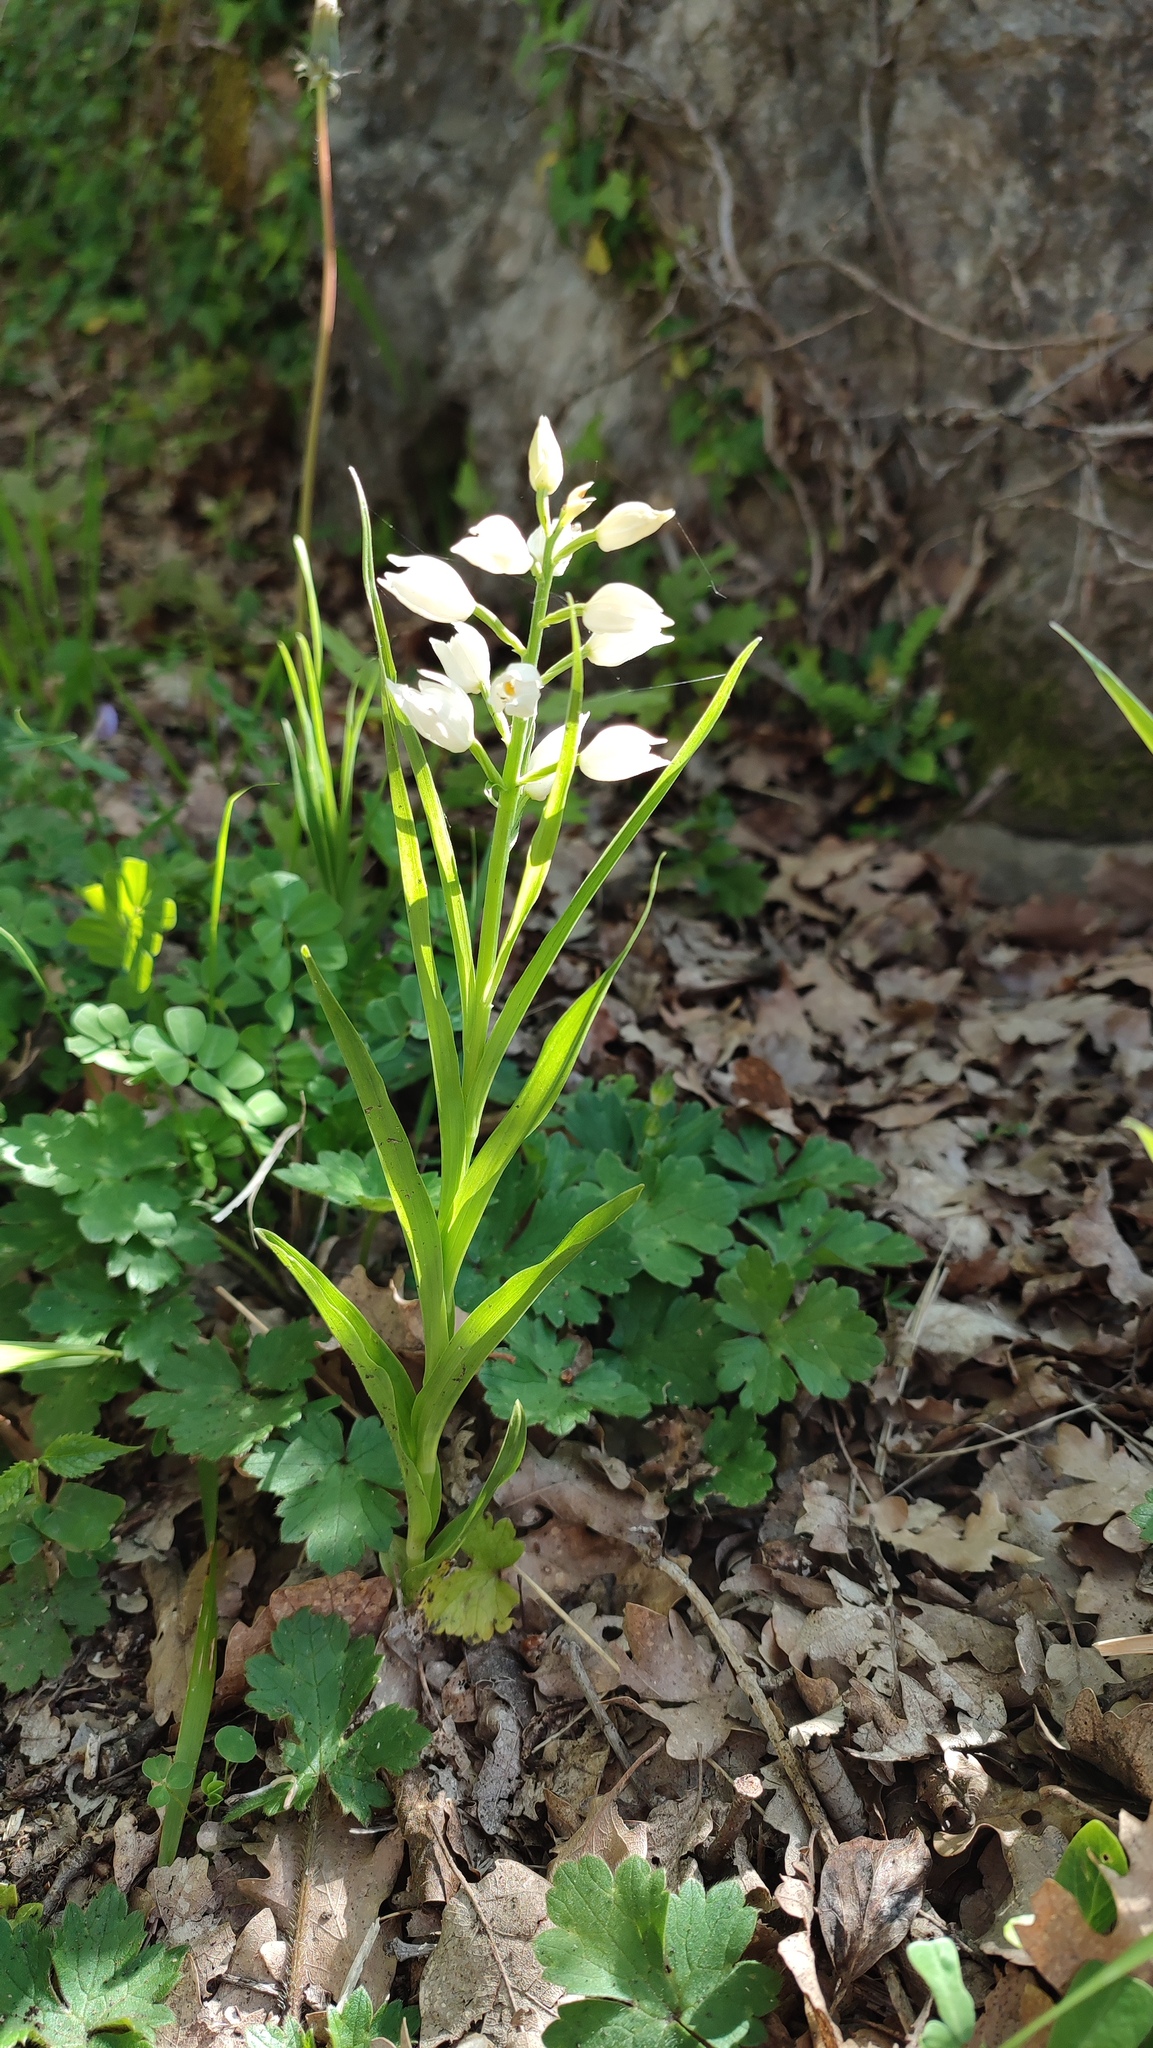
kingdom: Plantae
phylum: Tracheophyta
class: Liliopsida
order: Asparagales
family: Orchidaceae
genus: Cephalanthera
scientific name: Cephalanthera longifolia
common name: Narrow-leaved helleborine
